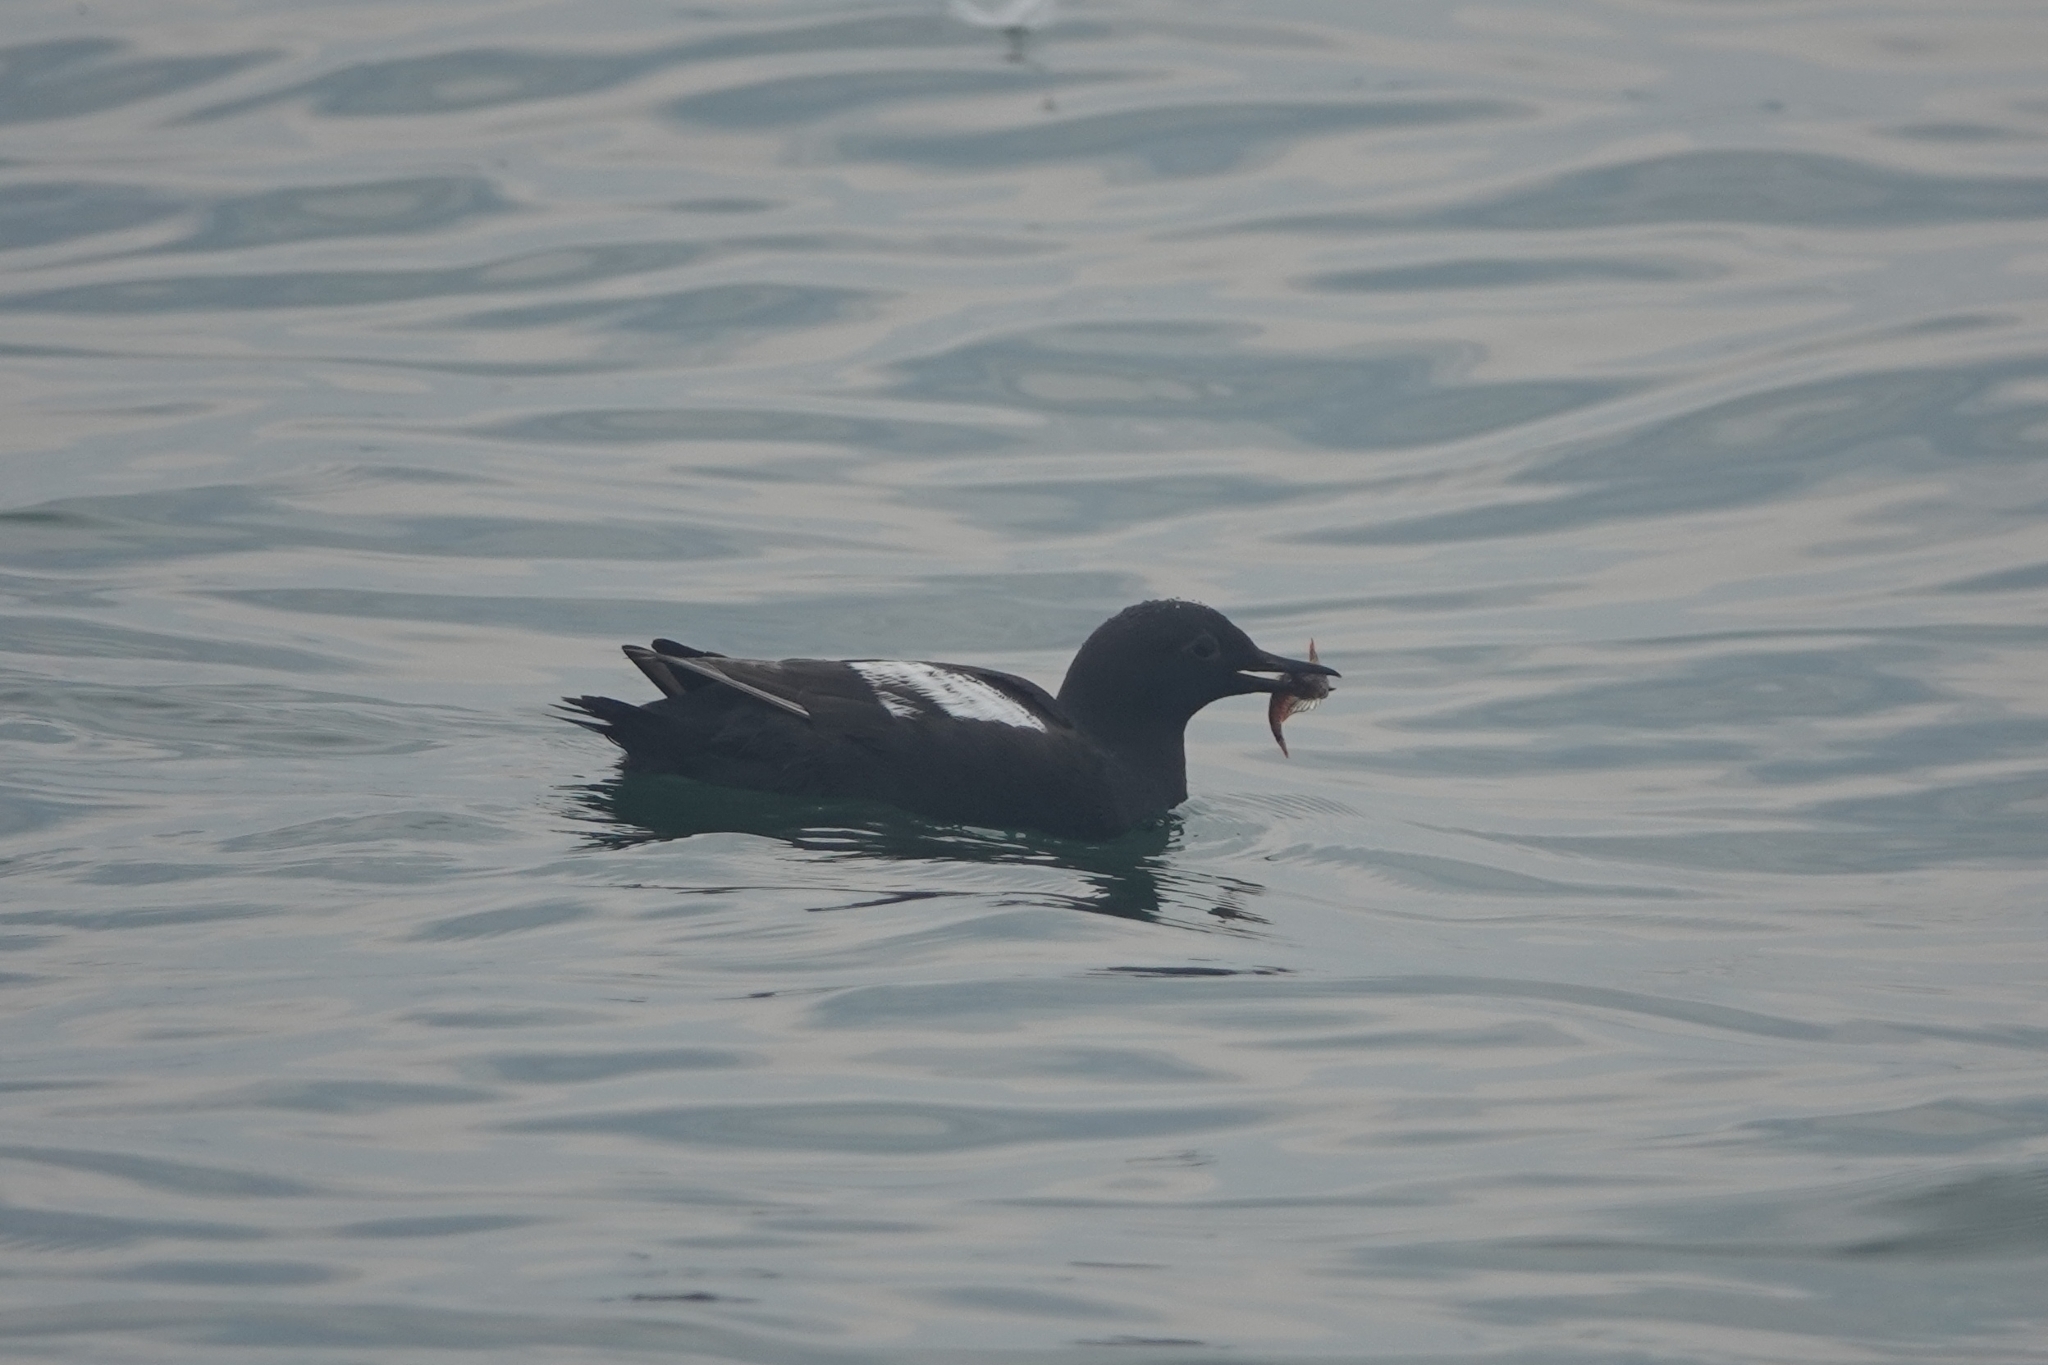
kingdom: Animalia
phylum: Chordata
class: Aves
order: Charadriiformes
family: Alcidae
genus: Cepphus
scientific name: Cepphus columba
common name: Pigeon guillemot
